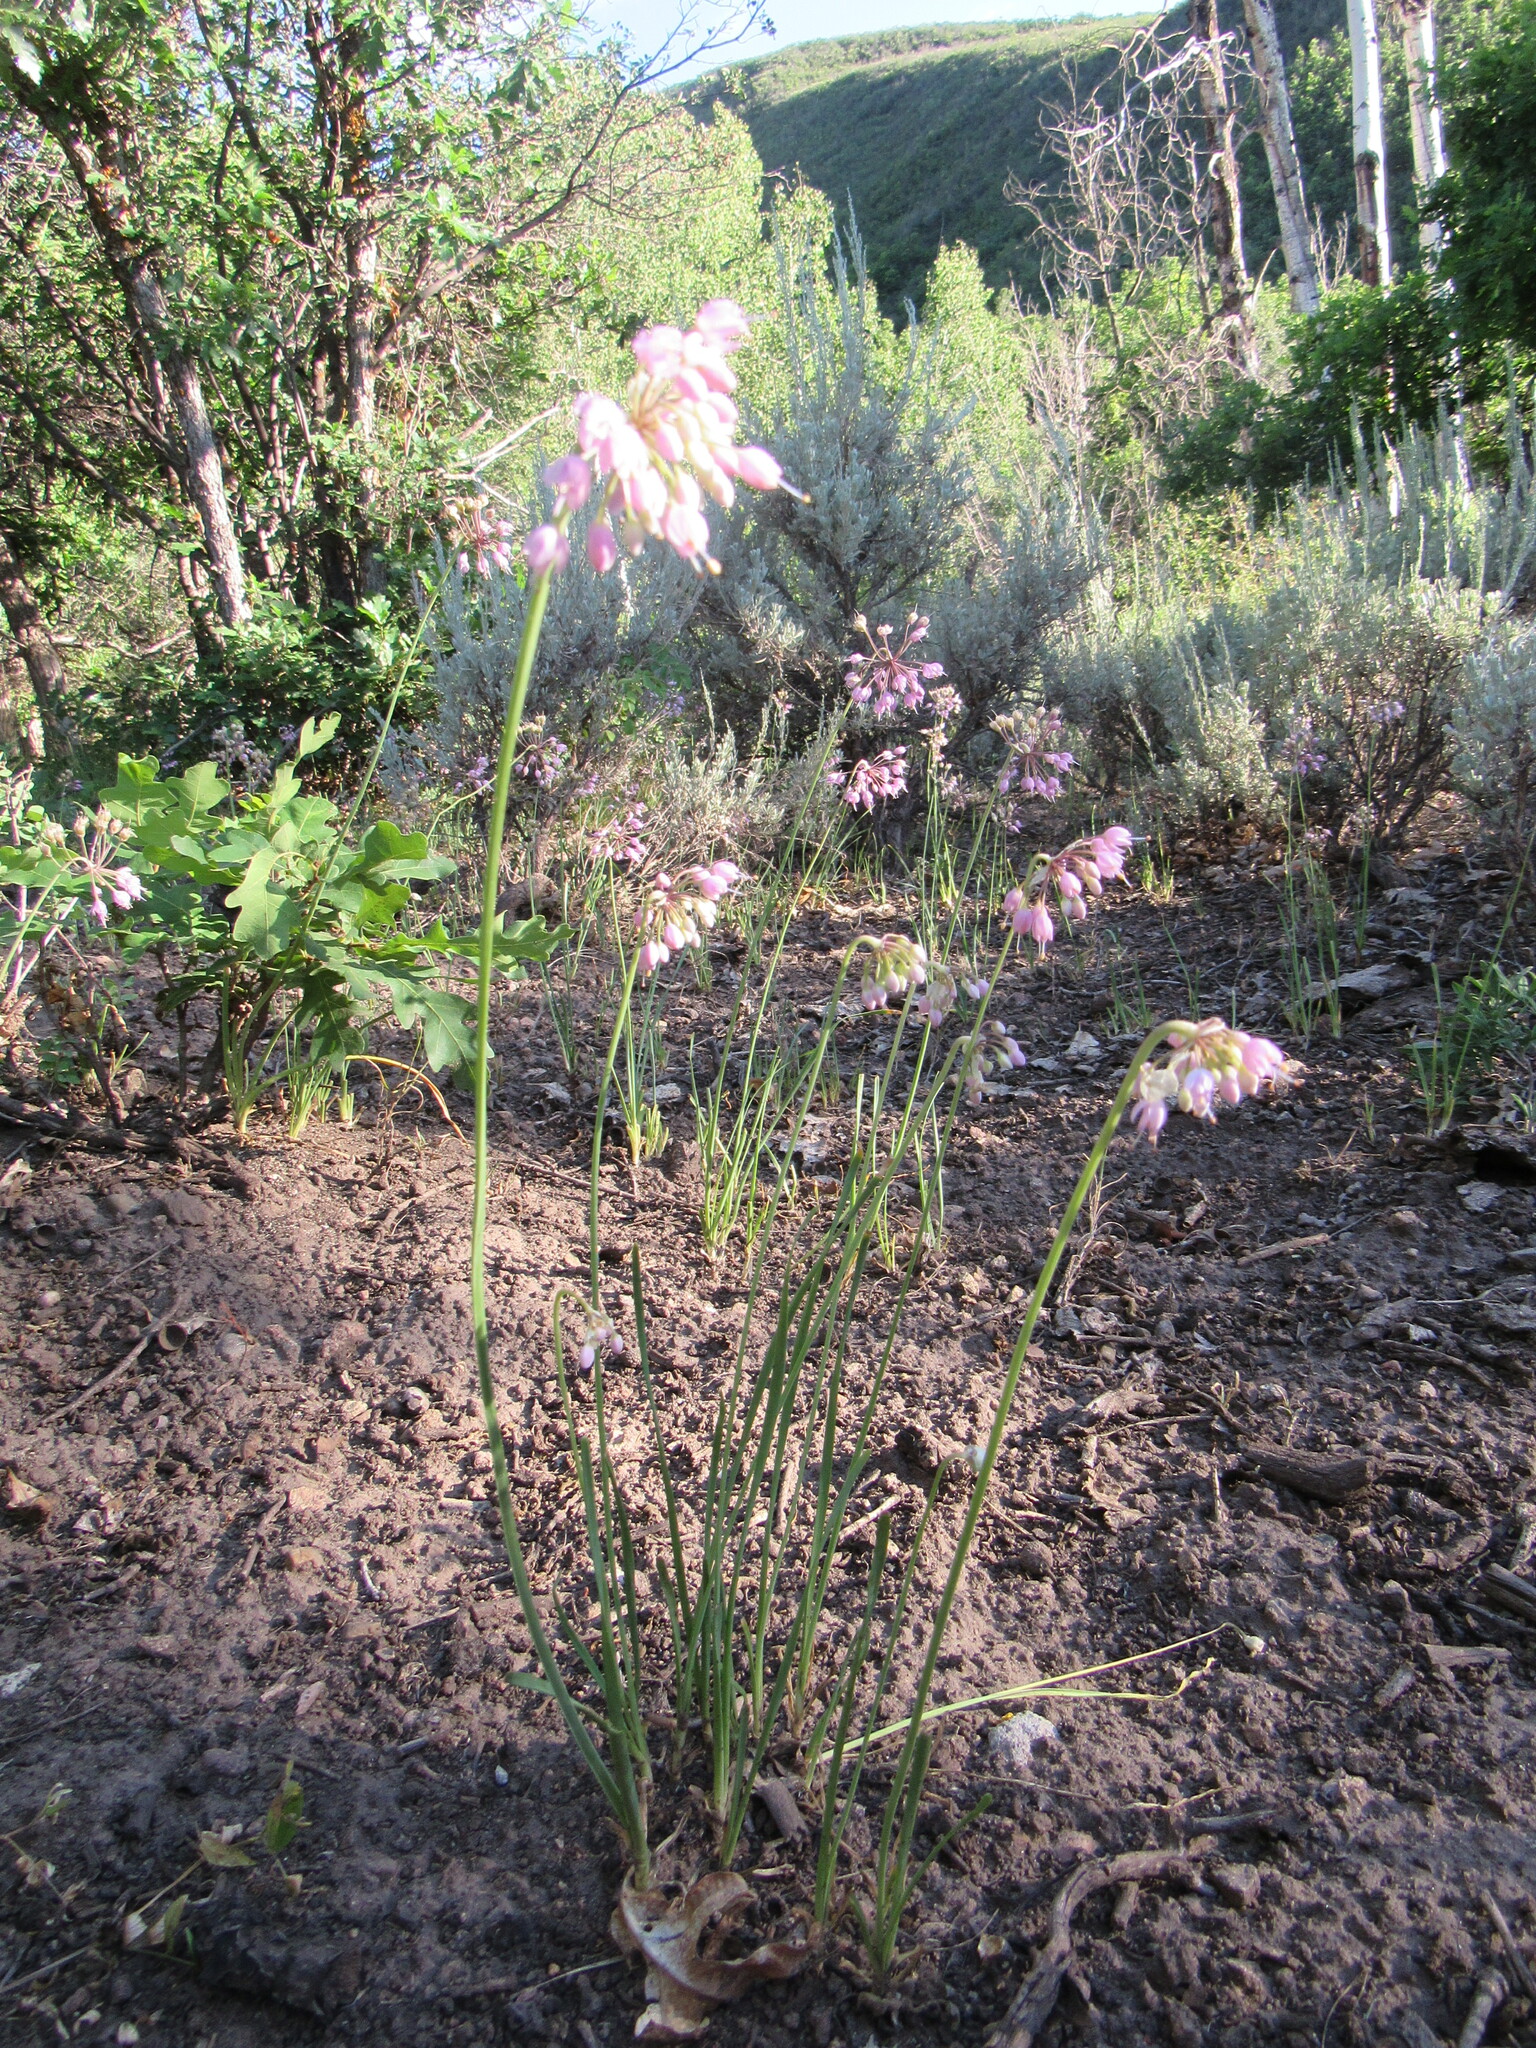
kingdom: Plantae
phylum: Tracheophyta
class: Liliopsida
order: Asparagales
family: Amaryllidaceae
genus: Allium
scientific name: Allium cernuum
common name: Nodding onion
